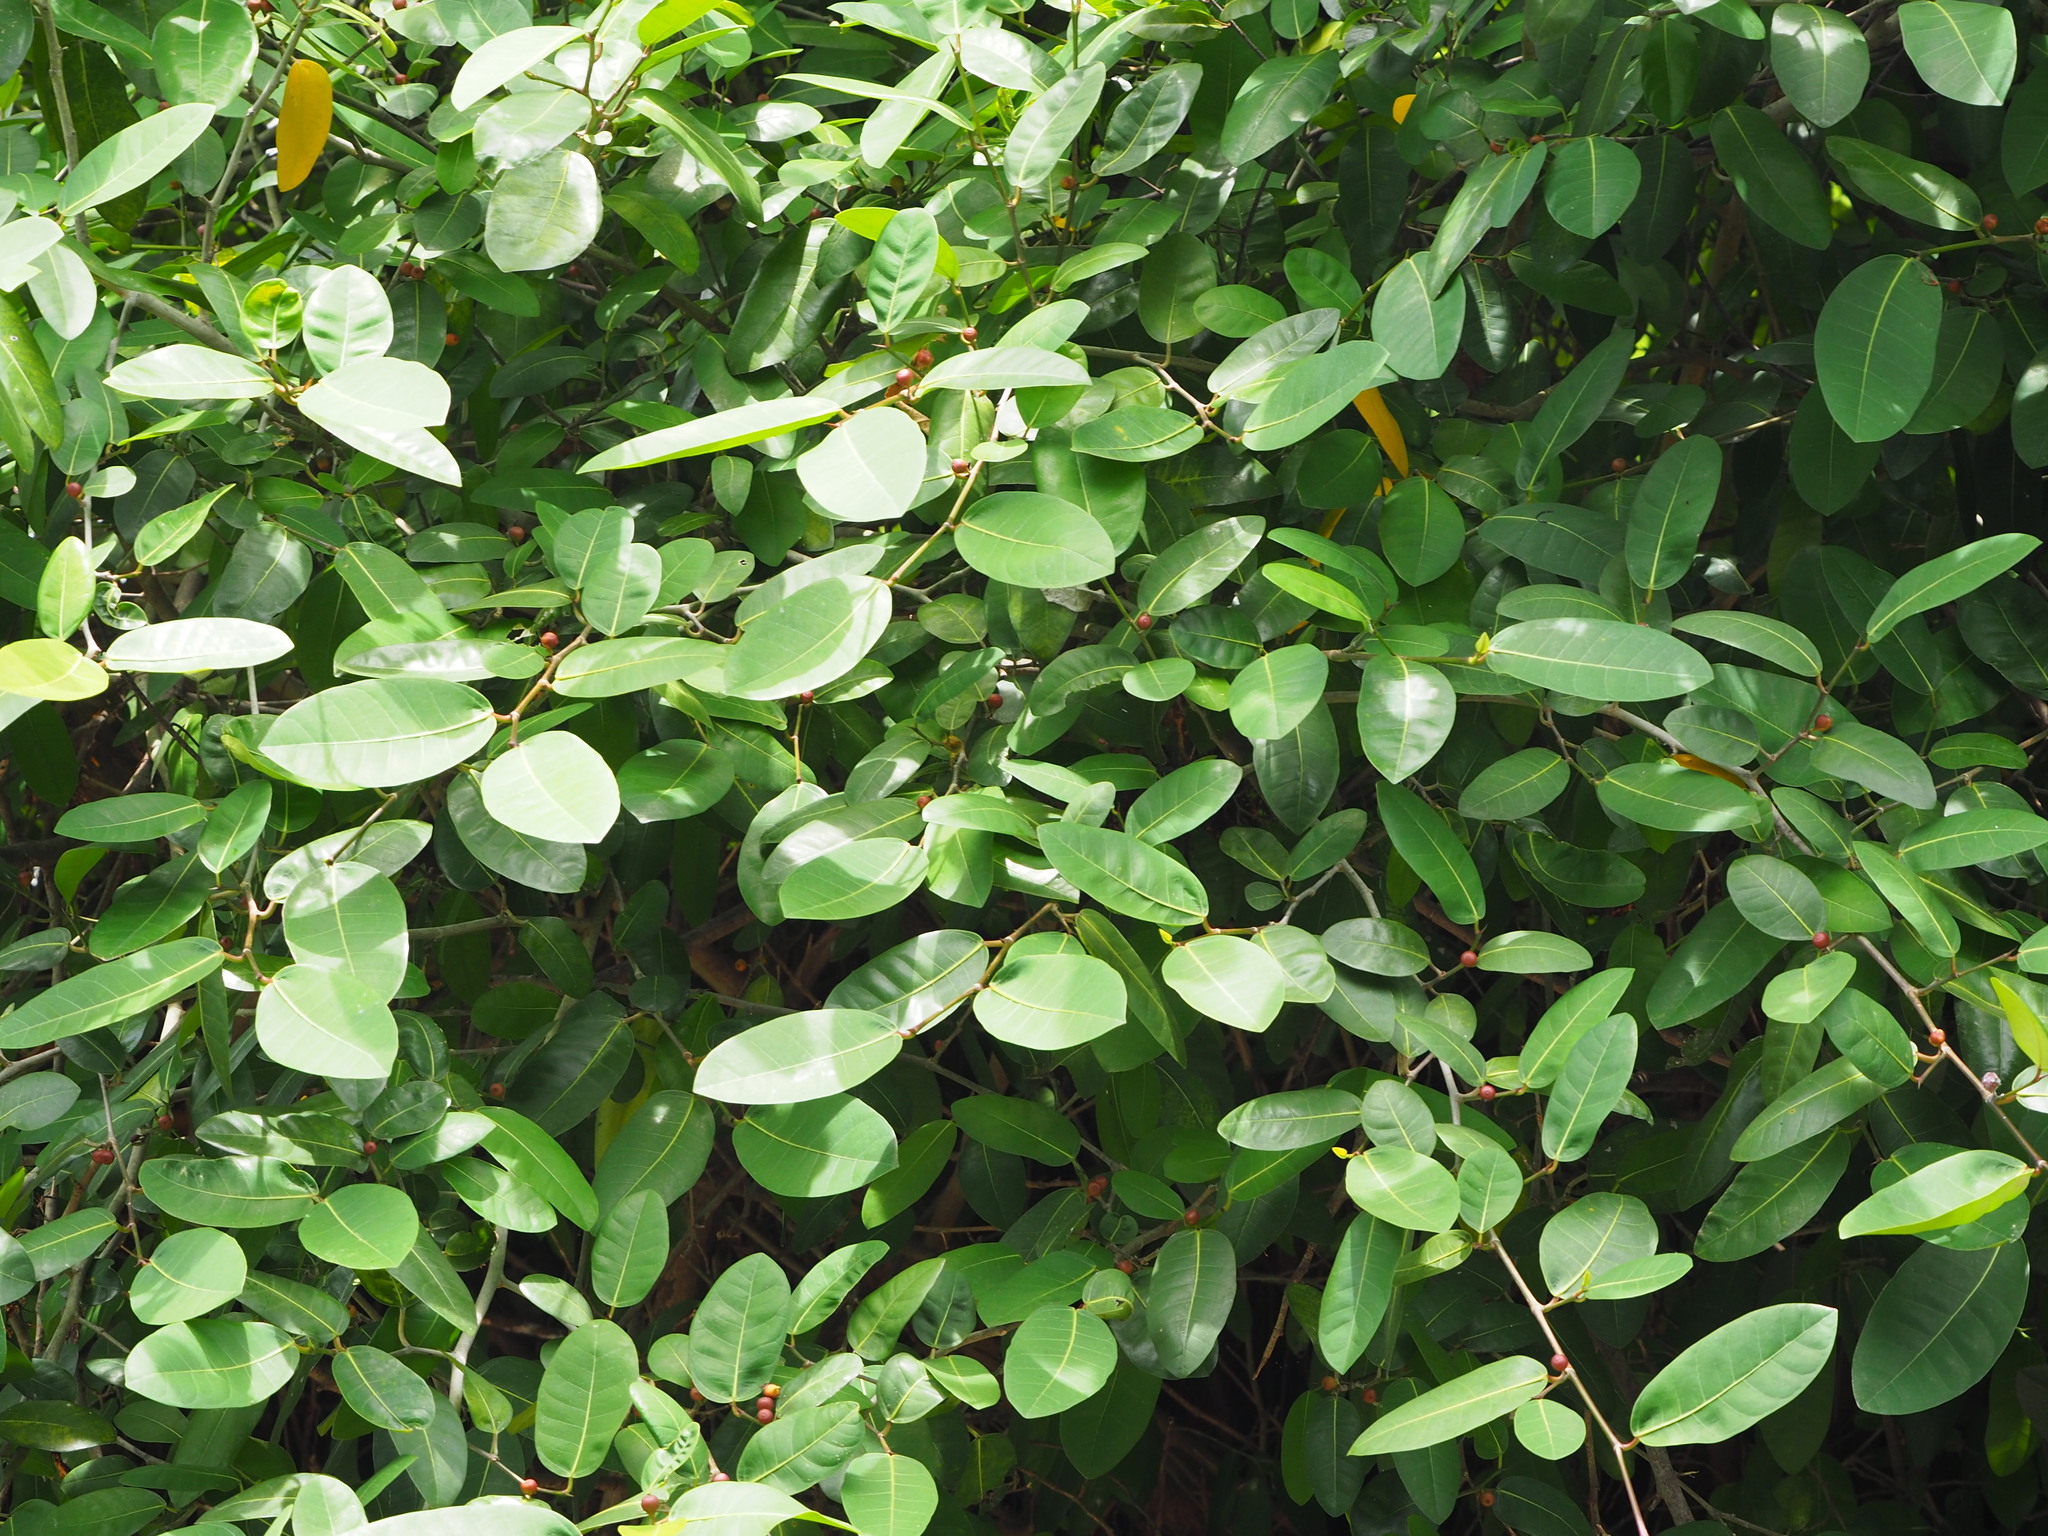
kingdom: Plantae
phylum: Tracheophyta
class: Magnoliopsida
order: Rosales
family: Moraceae
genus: Ficus
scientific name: Ficus tinctoria
